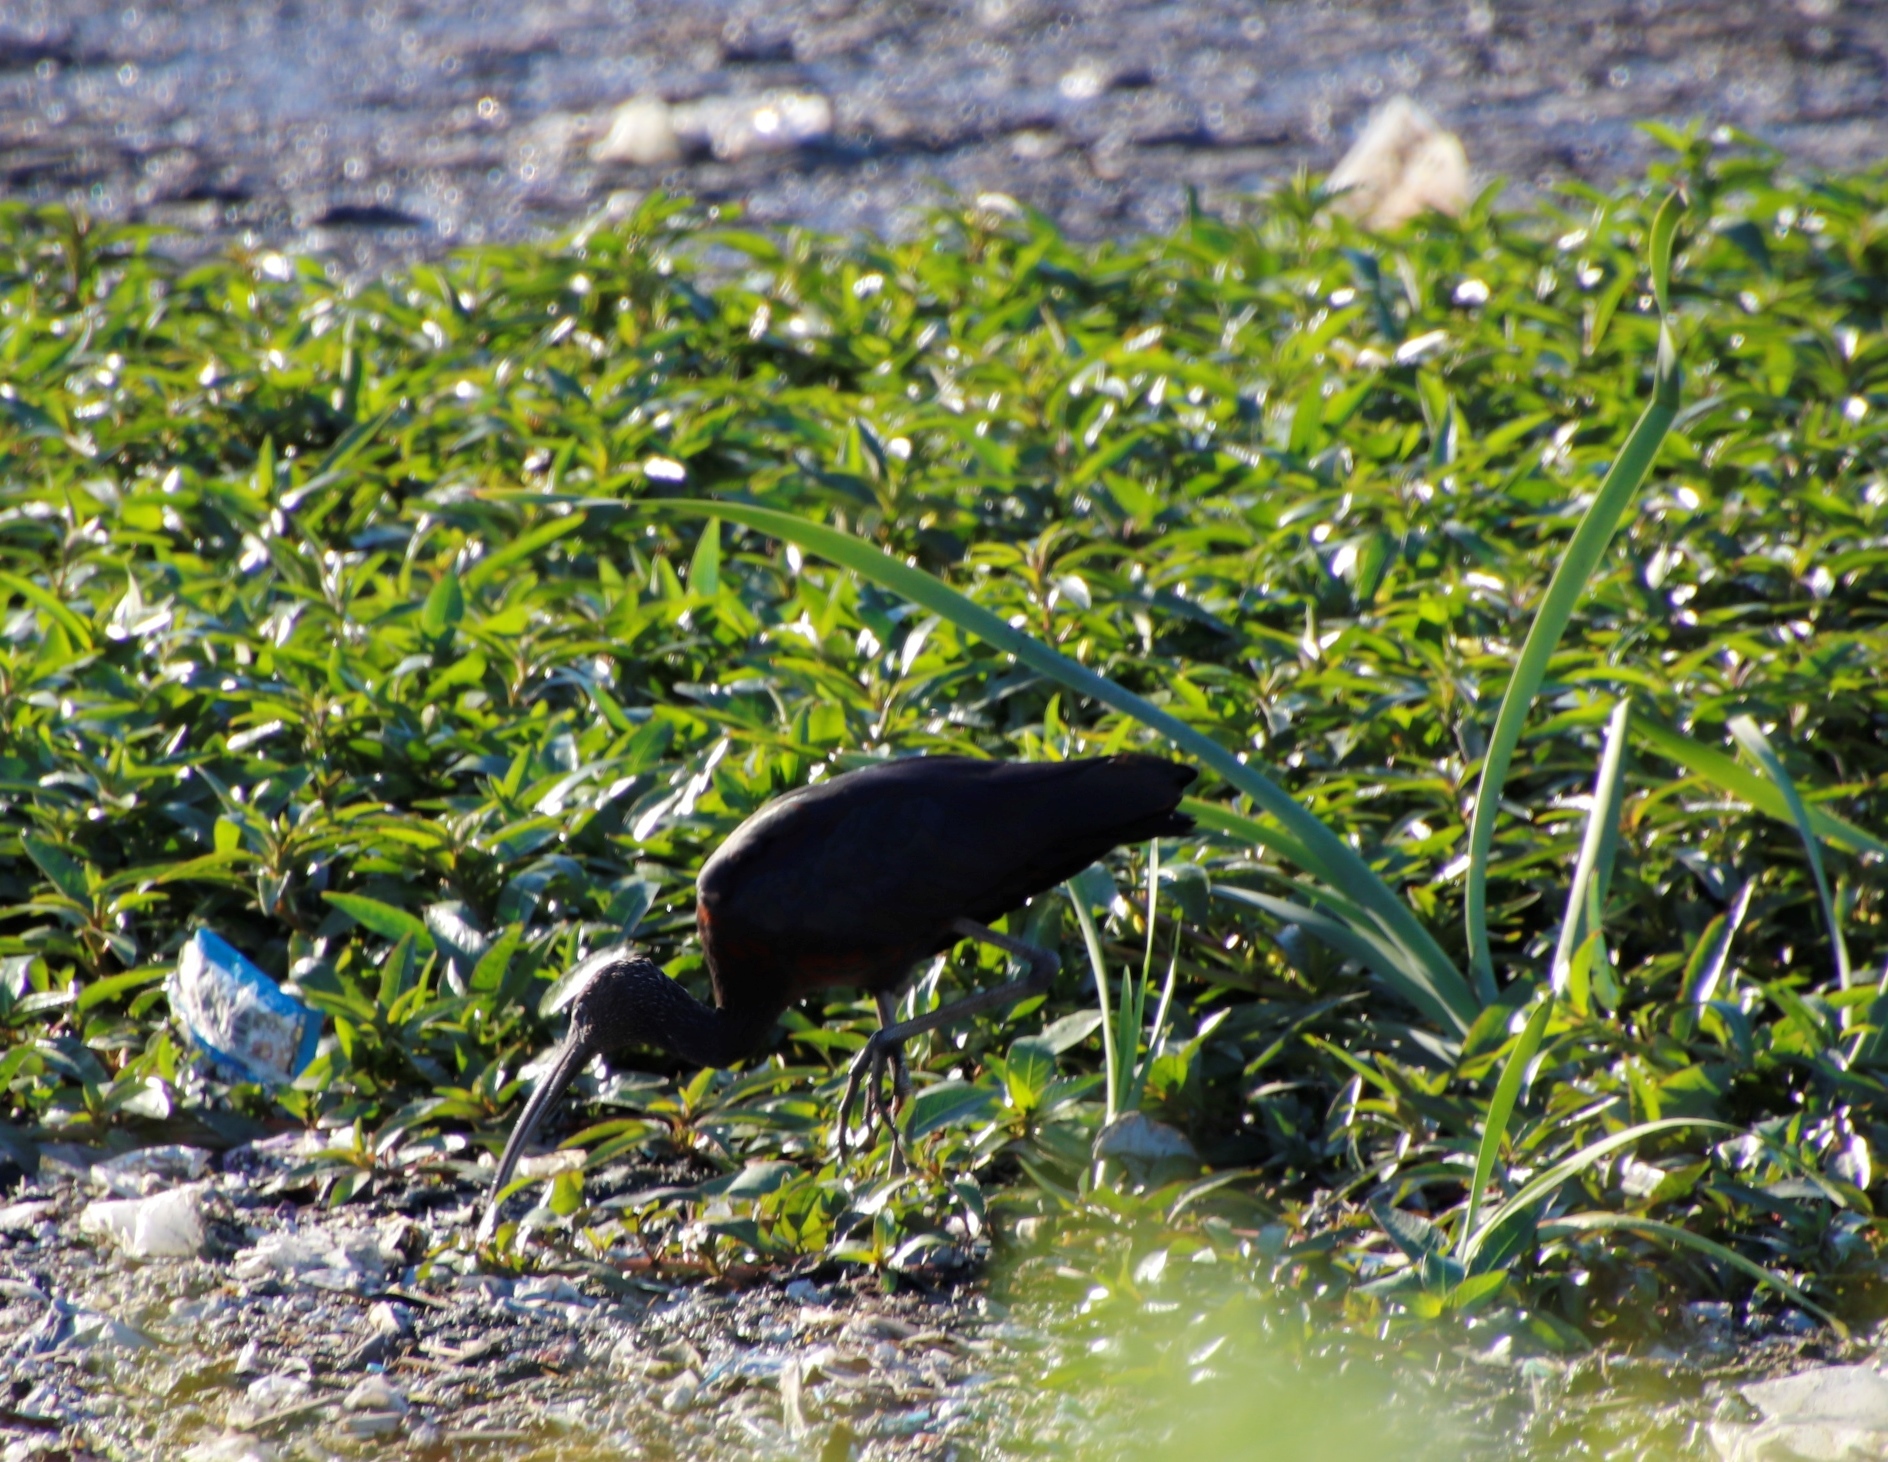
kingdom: Animalia
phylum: Chordata
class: Aves
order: Pelecaniformes
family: Threskiornithidae
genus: Plegadis
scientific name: Plegadis falcinellus
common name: Glossy ibis
